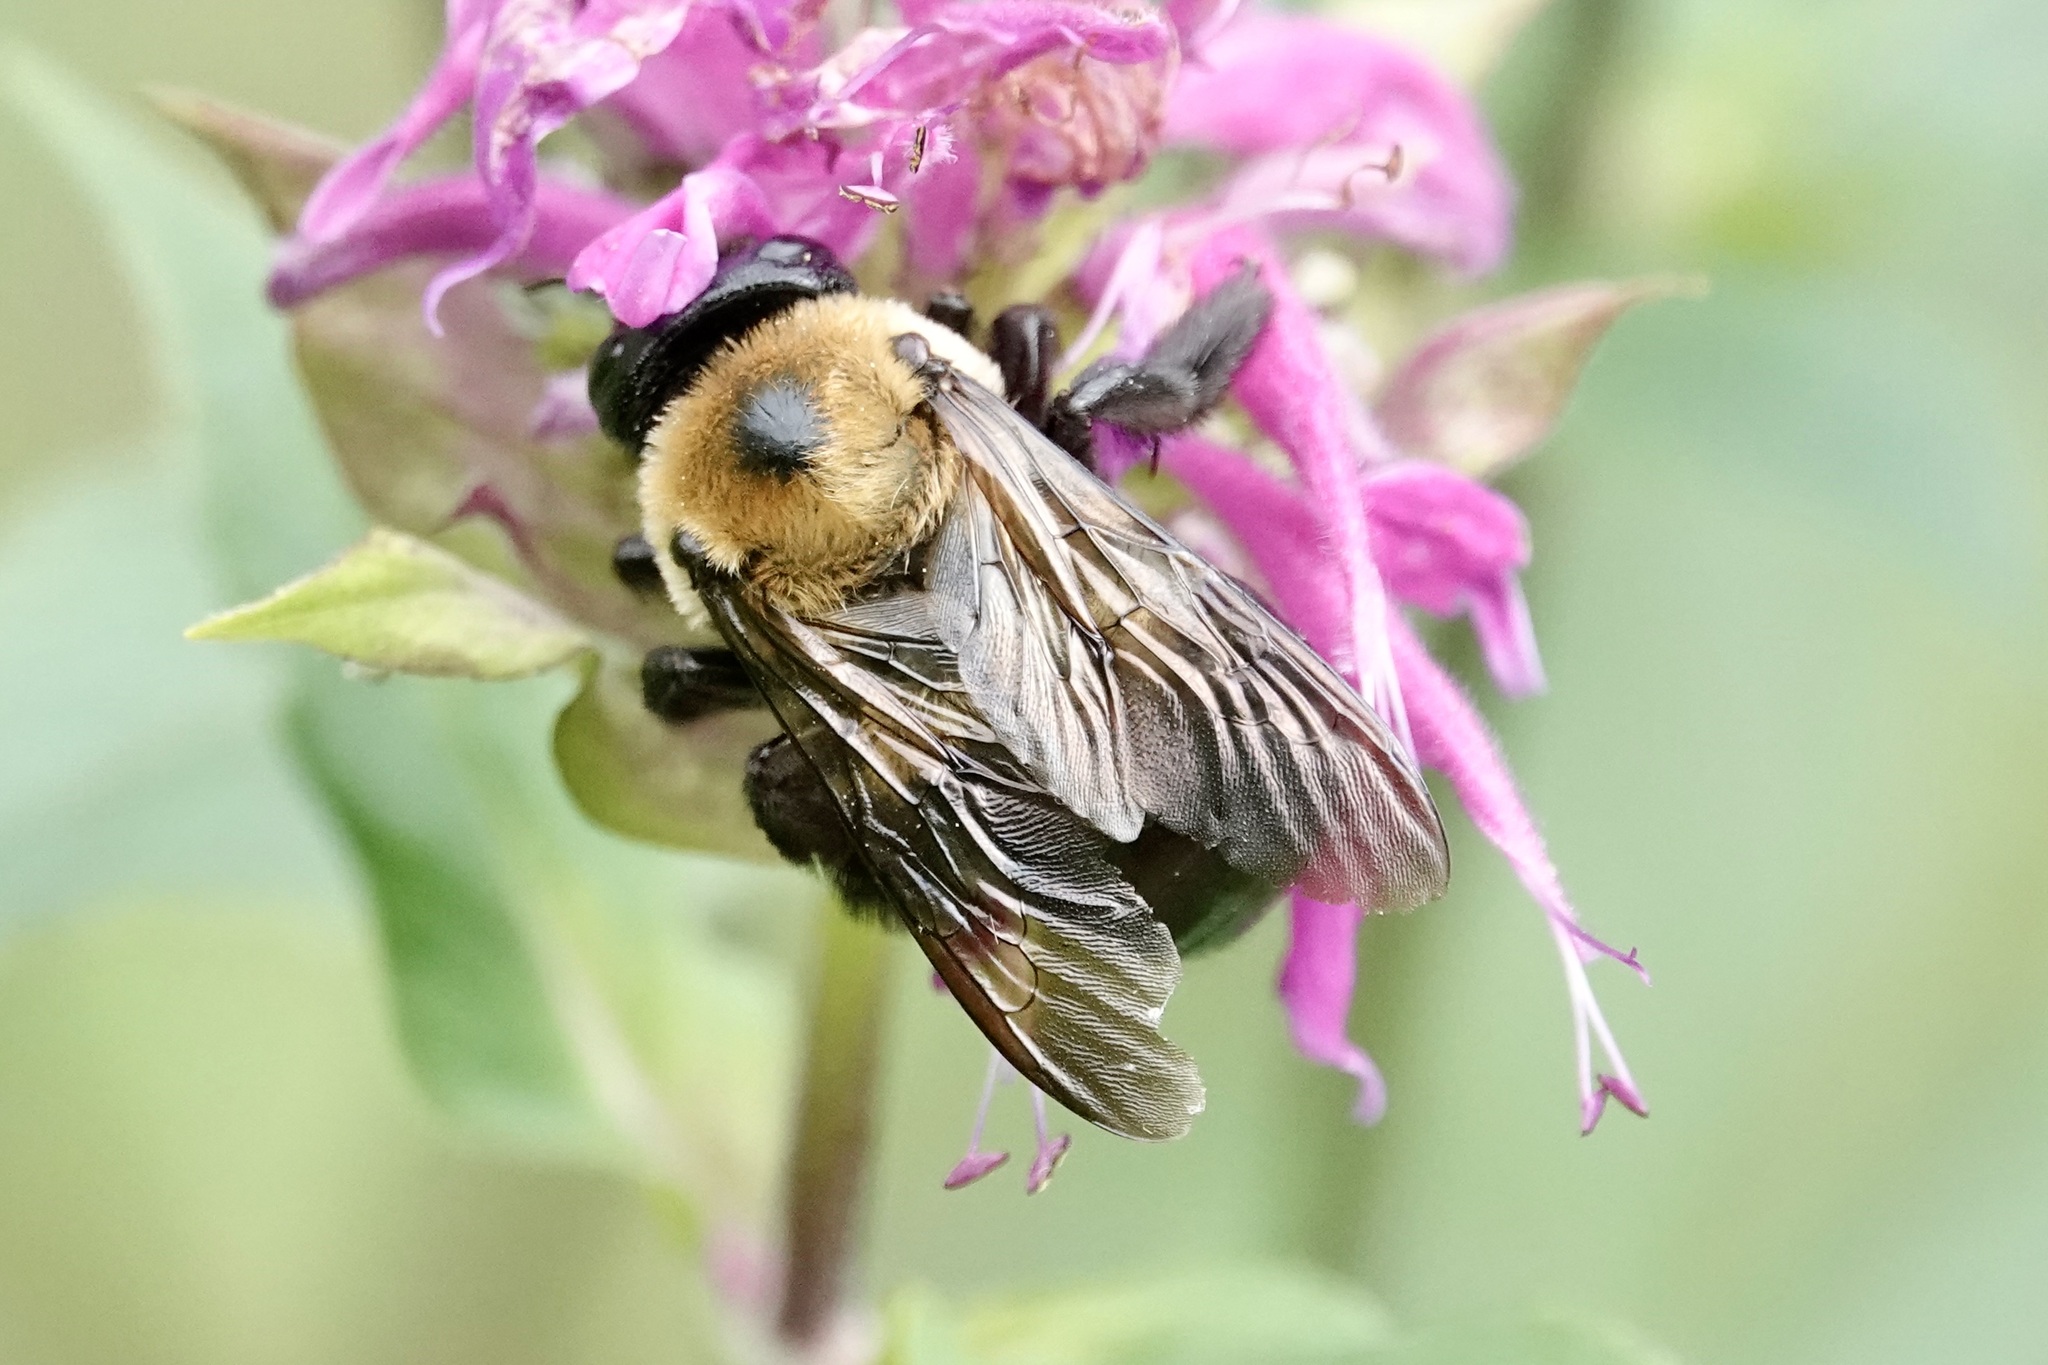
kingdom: Animalia
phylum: Arthropoda
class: Insecta
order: Hymenoptera
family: Apidae
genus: Xylocopa
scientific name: Xylocopa virginica
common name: Carpenter bee
